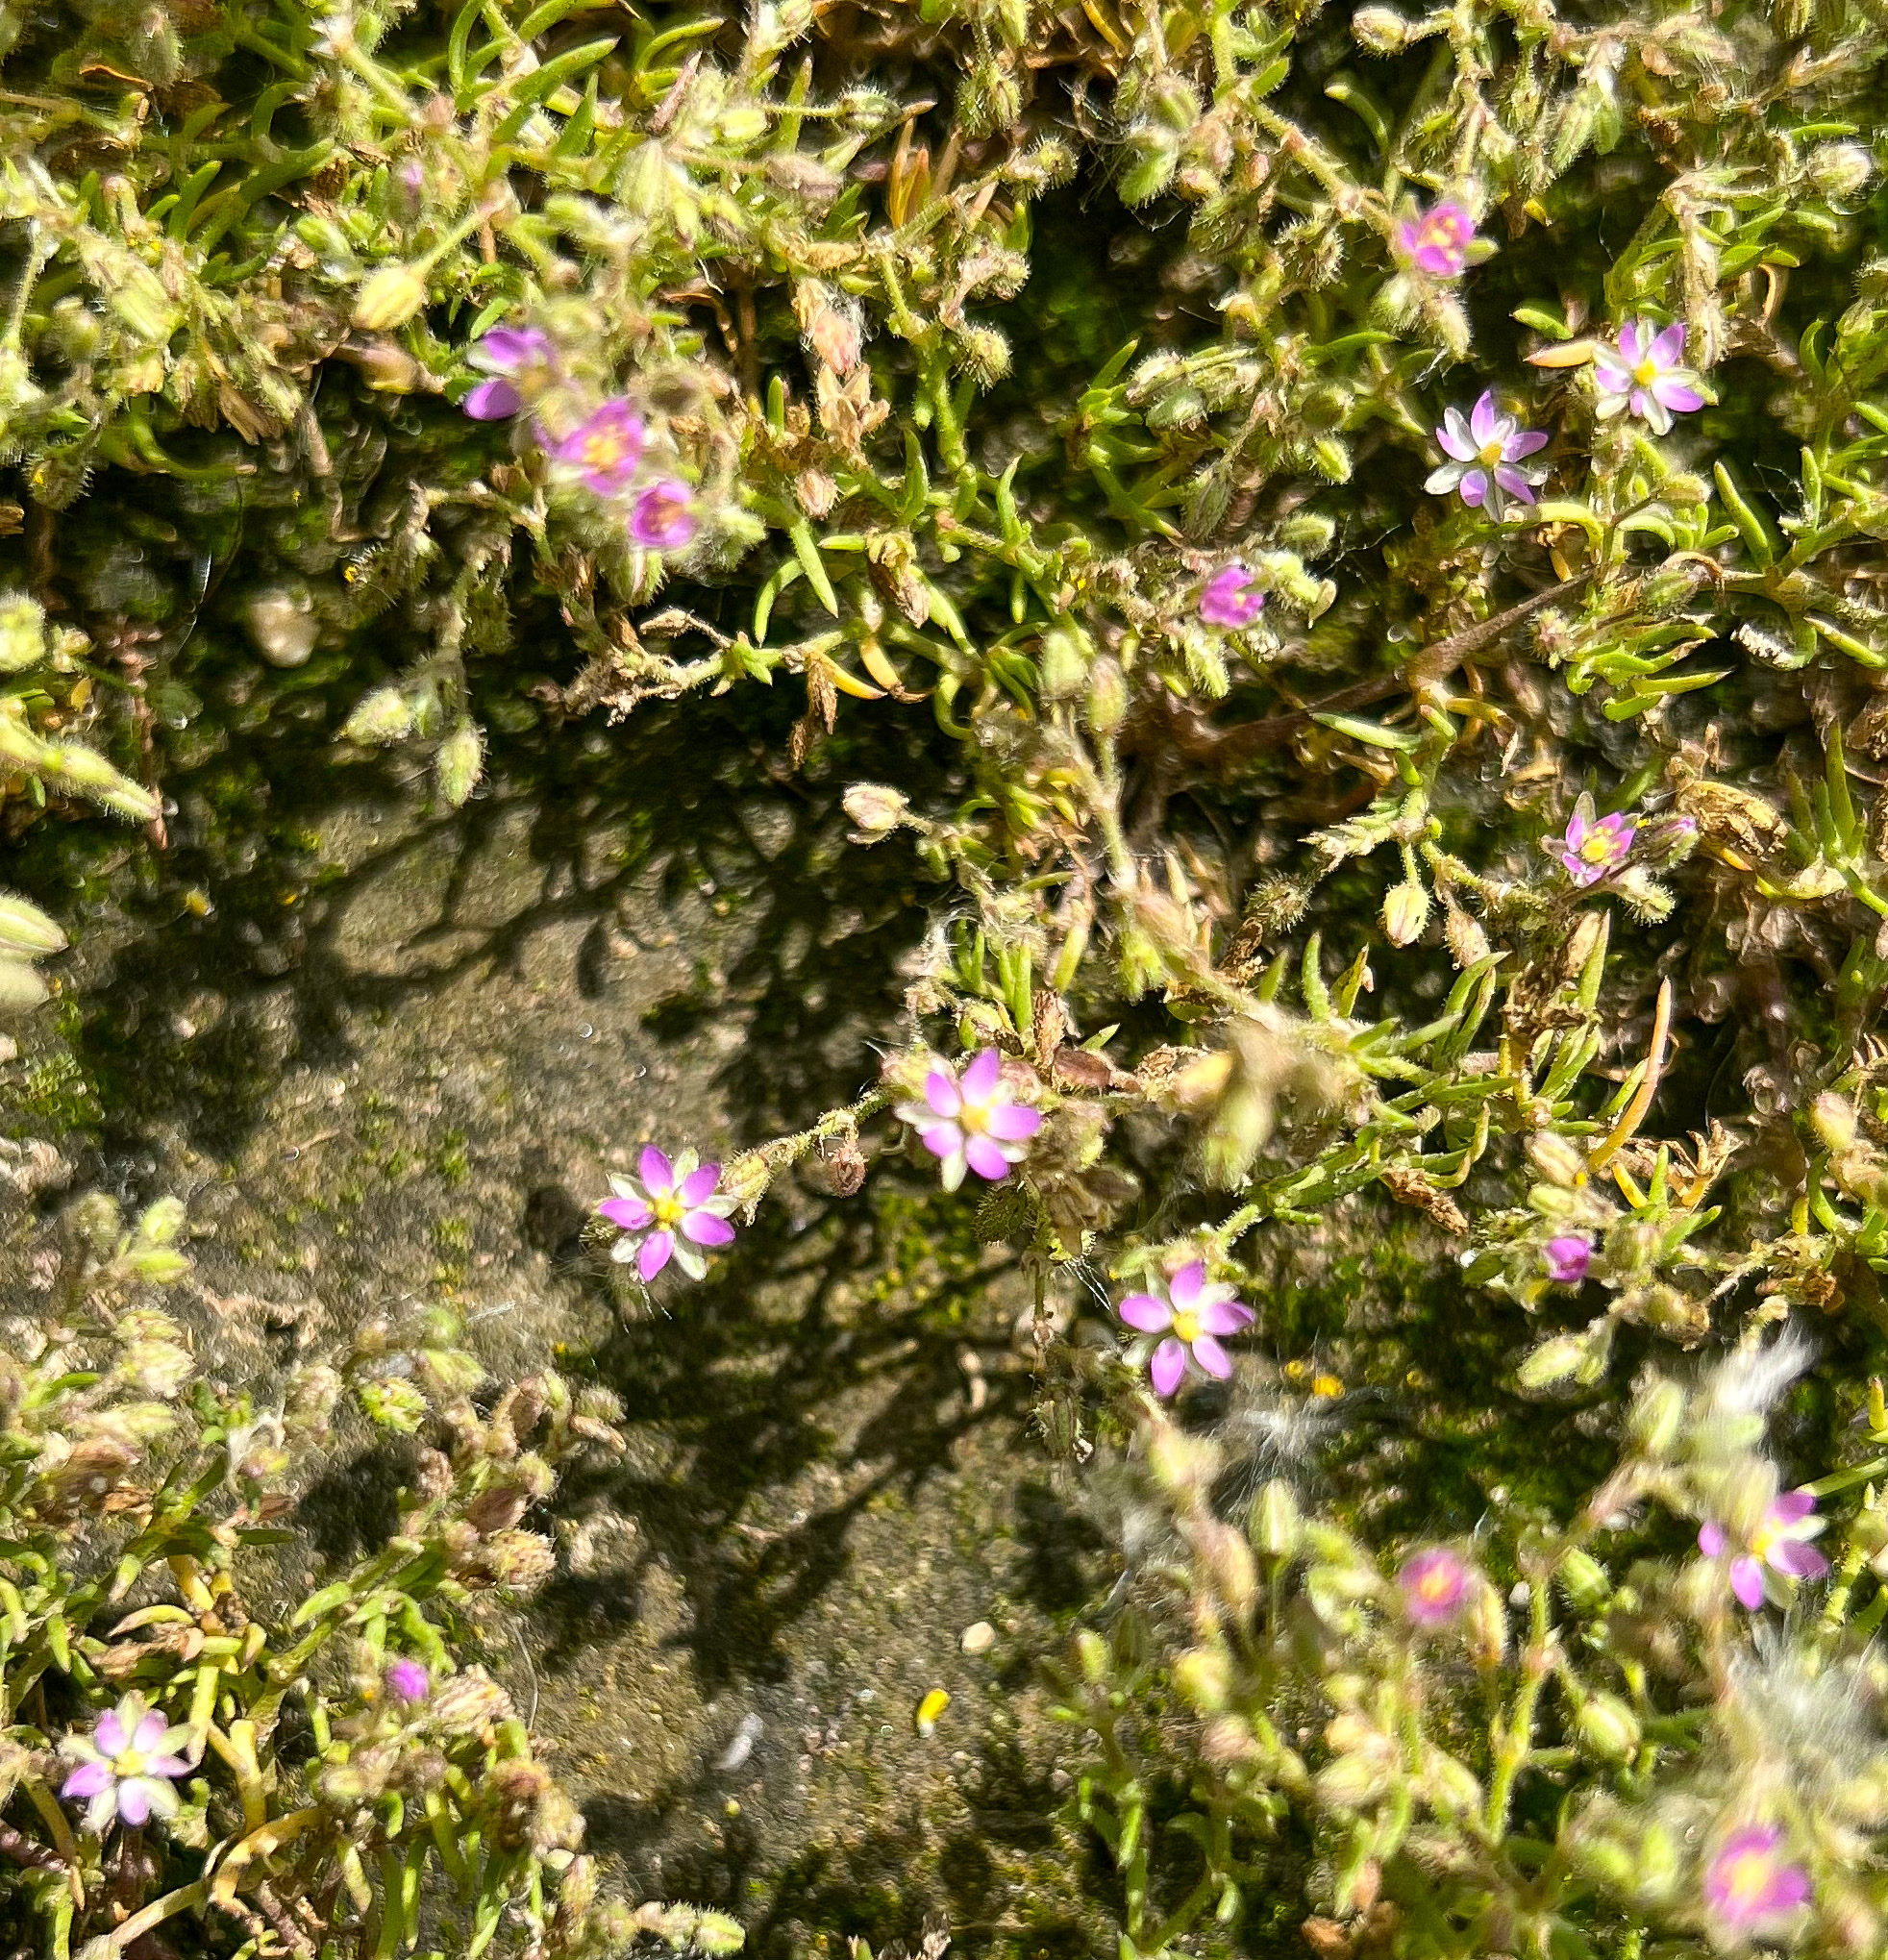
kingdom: Plantae
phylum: Tracheophyta
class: Magnoliopsida
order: Caryophyllales
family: Caryophyllaceae
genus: Spergularia
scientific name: Spergularia rubra
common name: Red sand-spurrey
